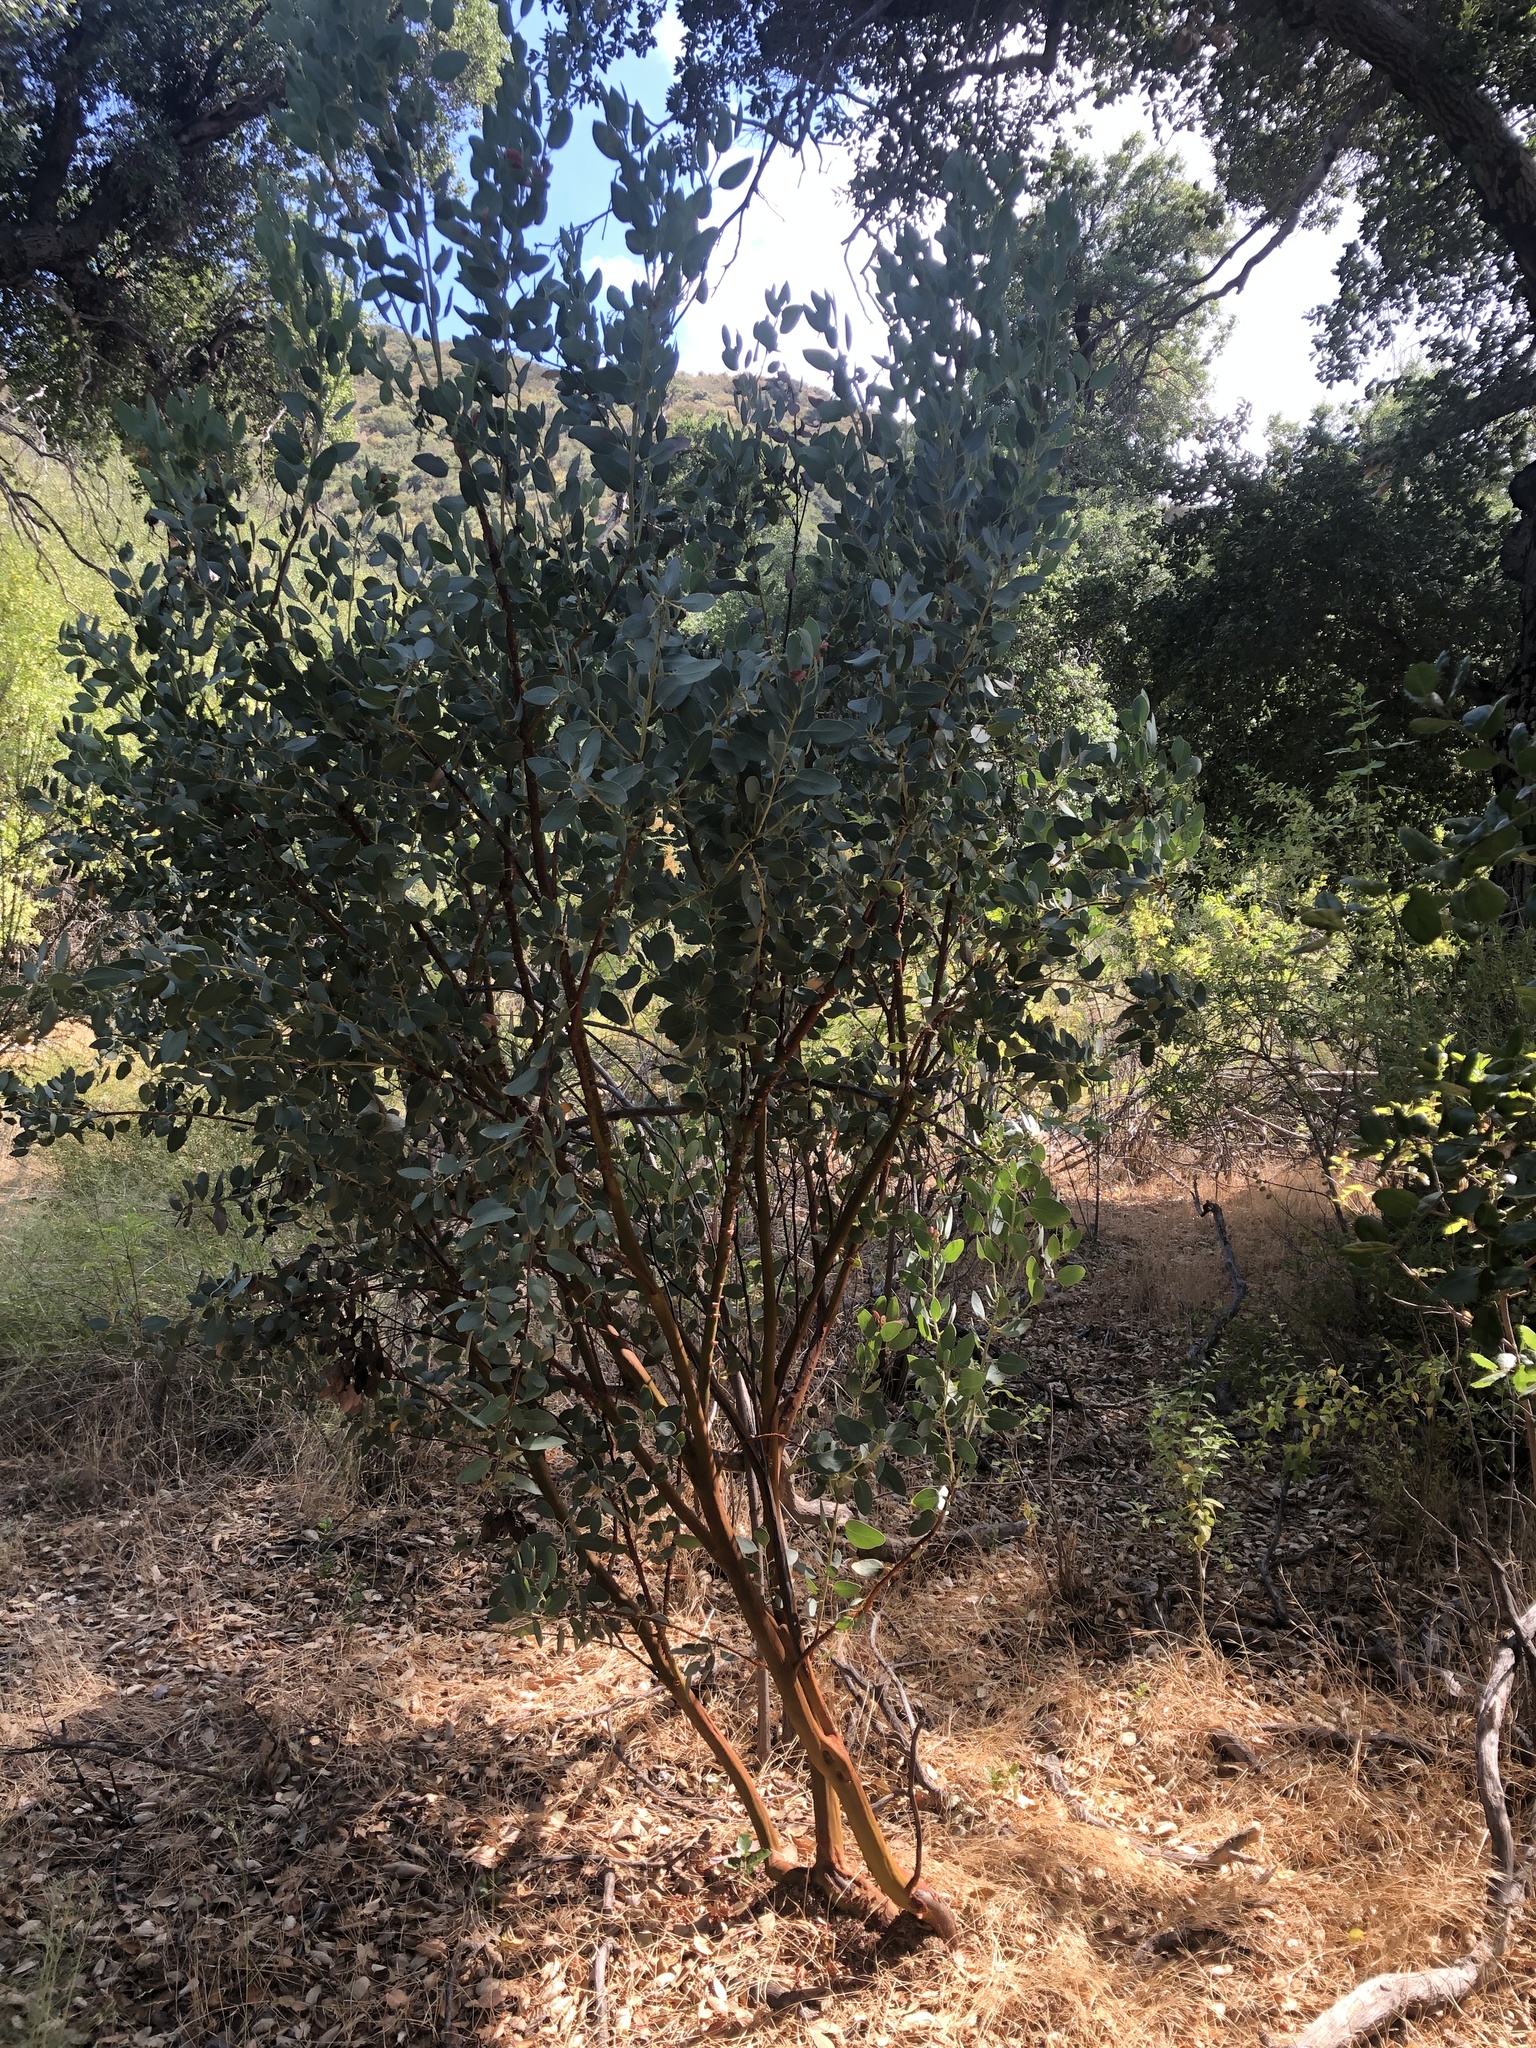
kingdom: Plantae
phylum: Tracheophyta
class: Magnoliopsida
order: Ericales
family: Ericaceae
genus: Arctostaphylos
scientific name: Arctostaphylos glauca
